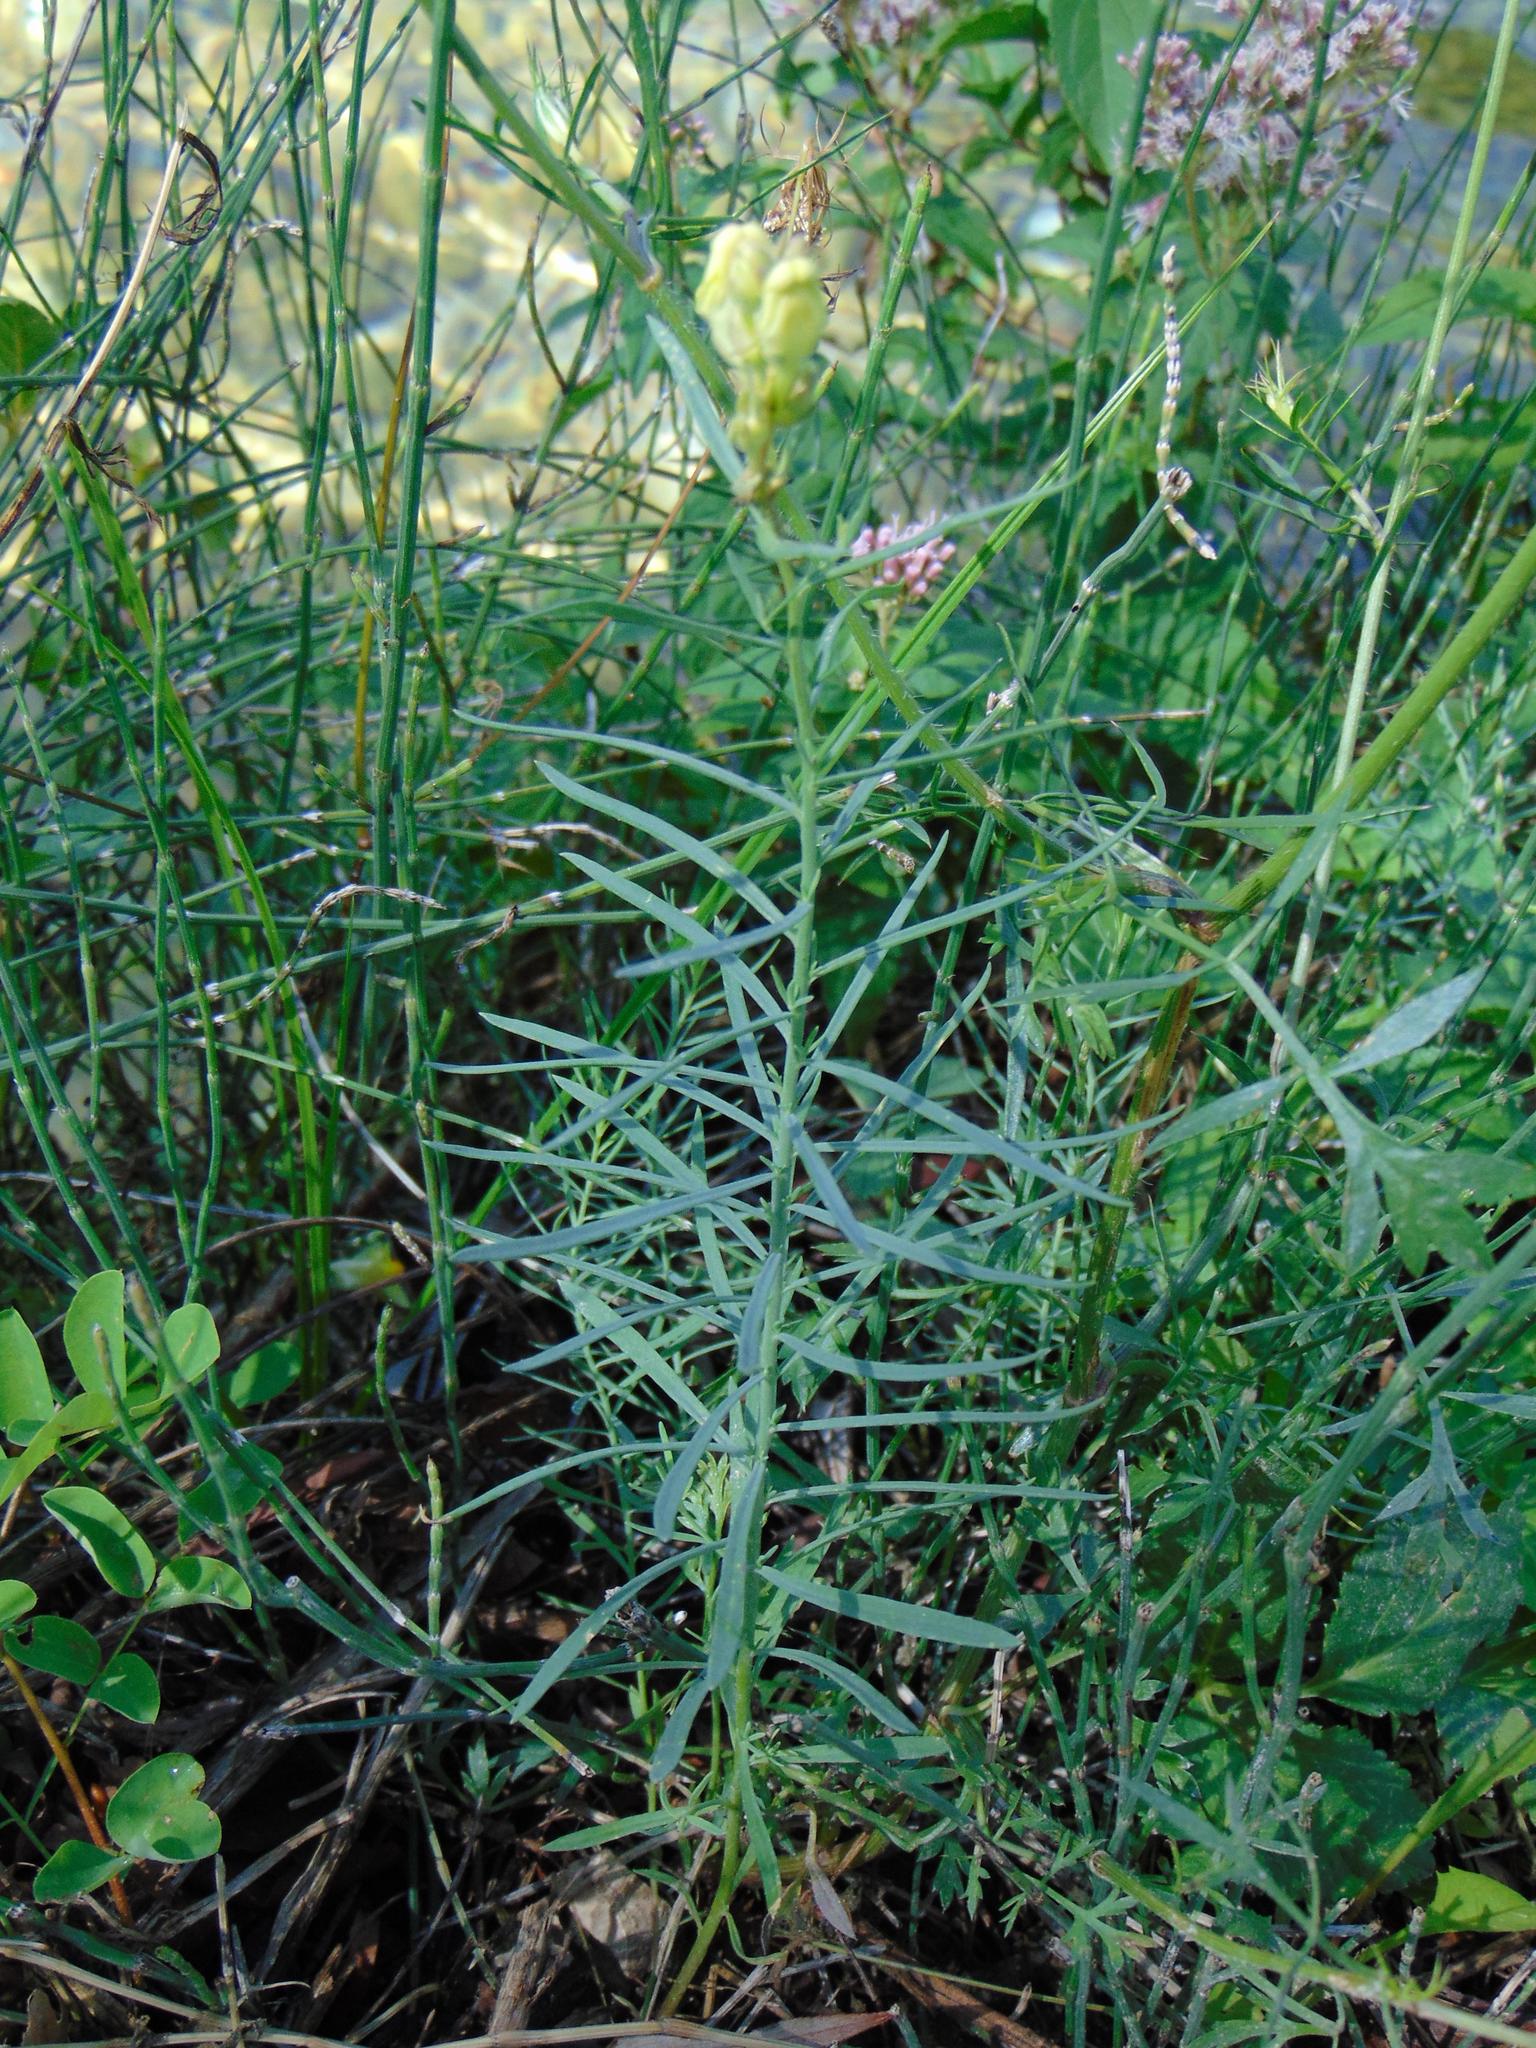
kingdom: Plantae
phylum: Tracheophyta
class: Magnoliopsida
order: Lamiales
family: Plantaginaceae
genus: Linaria
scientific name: Linaria vulgaris
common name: Butter and eggs
